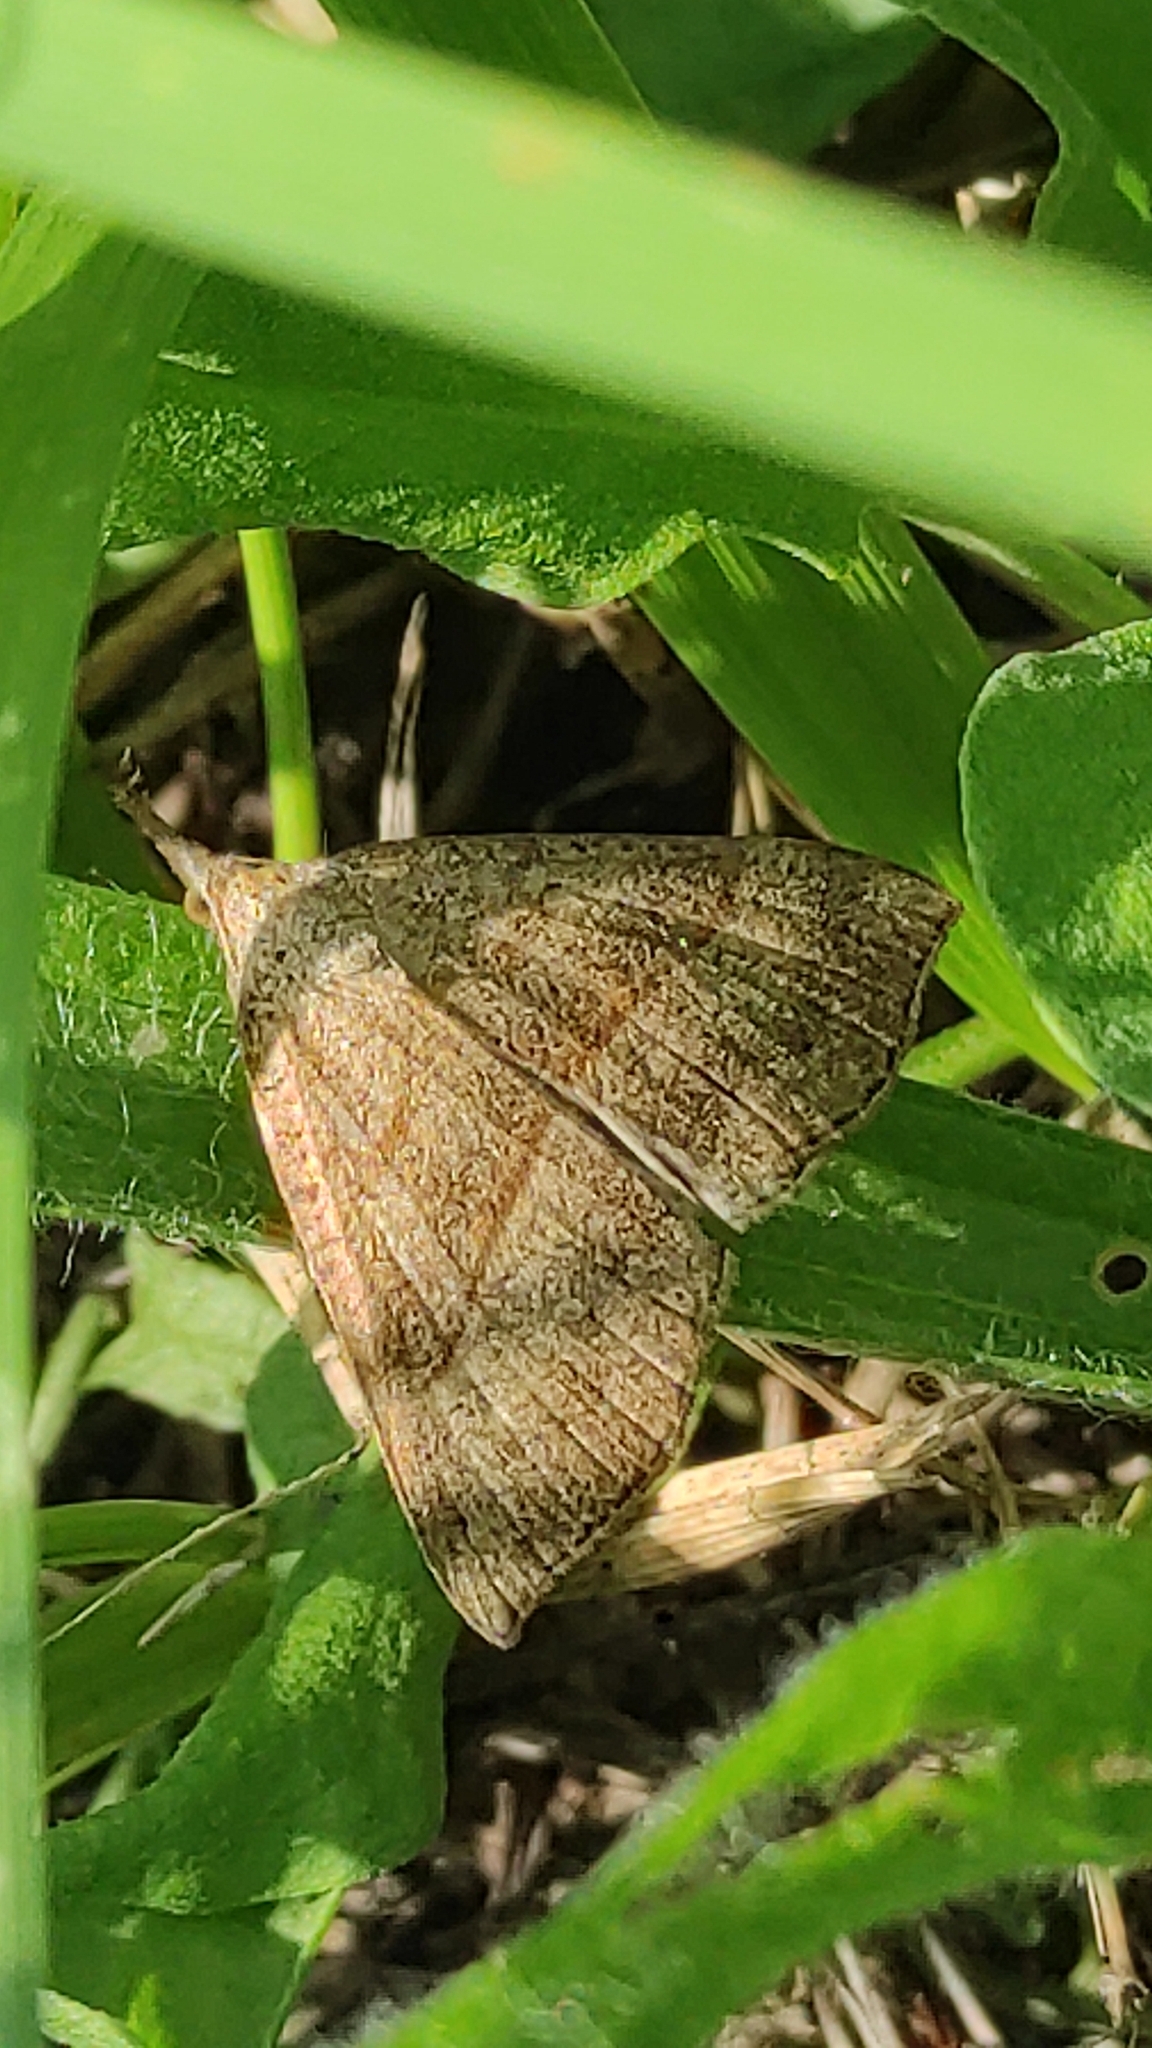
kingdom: Animalia
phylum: Arthropoda
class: Insecta
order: Lepidoptera
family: Erebidae
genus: Hypena
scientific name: Hypena proboscidalis
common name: Snout
